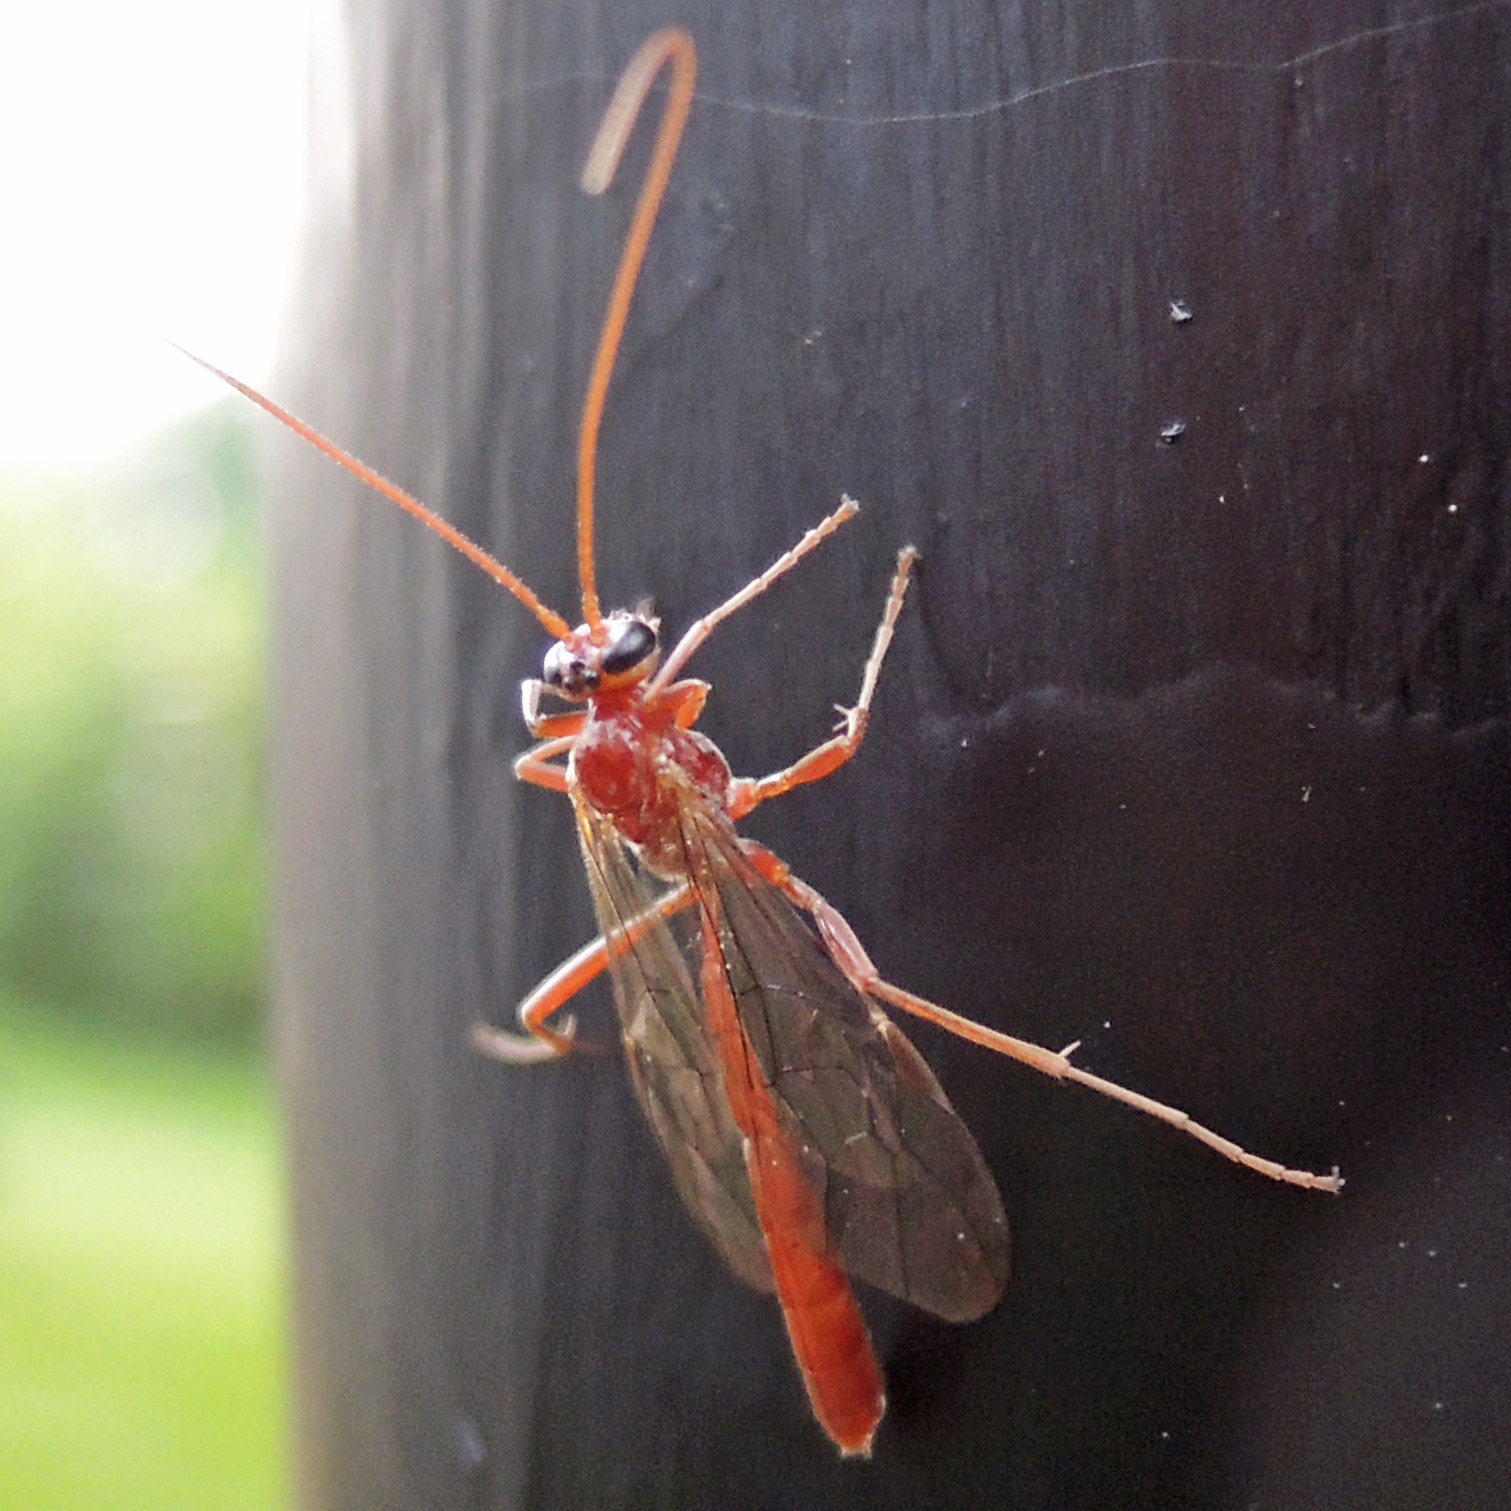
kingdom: Animalia
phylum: Arthropoda
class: Insecta
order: Hymenoptera
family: Ichneumonidae
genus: Ophion
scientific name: Ophion
